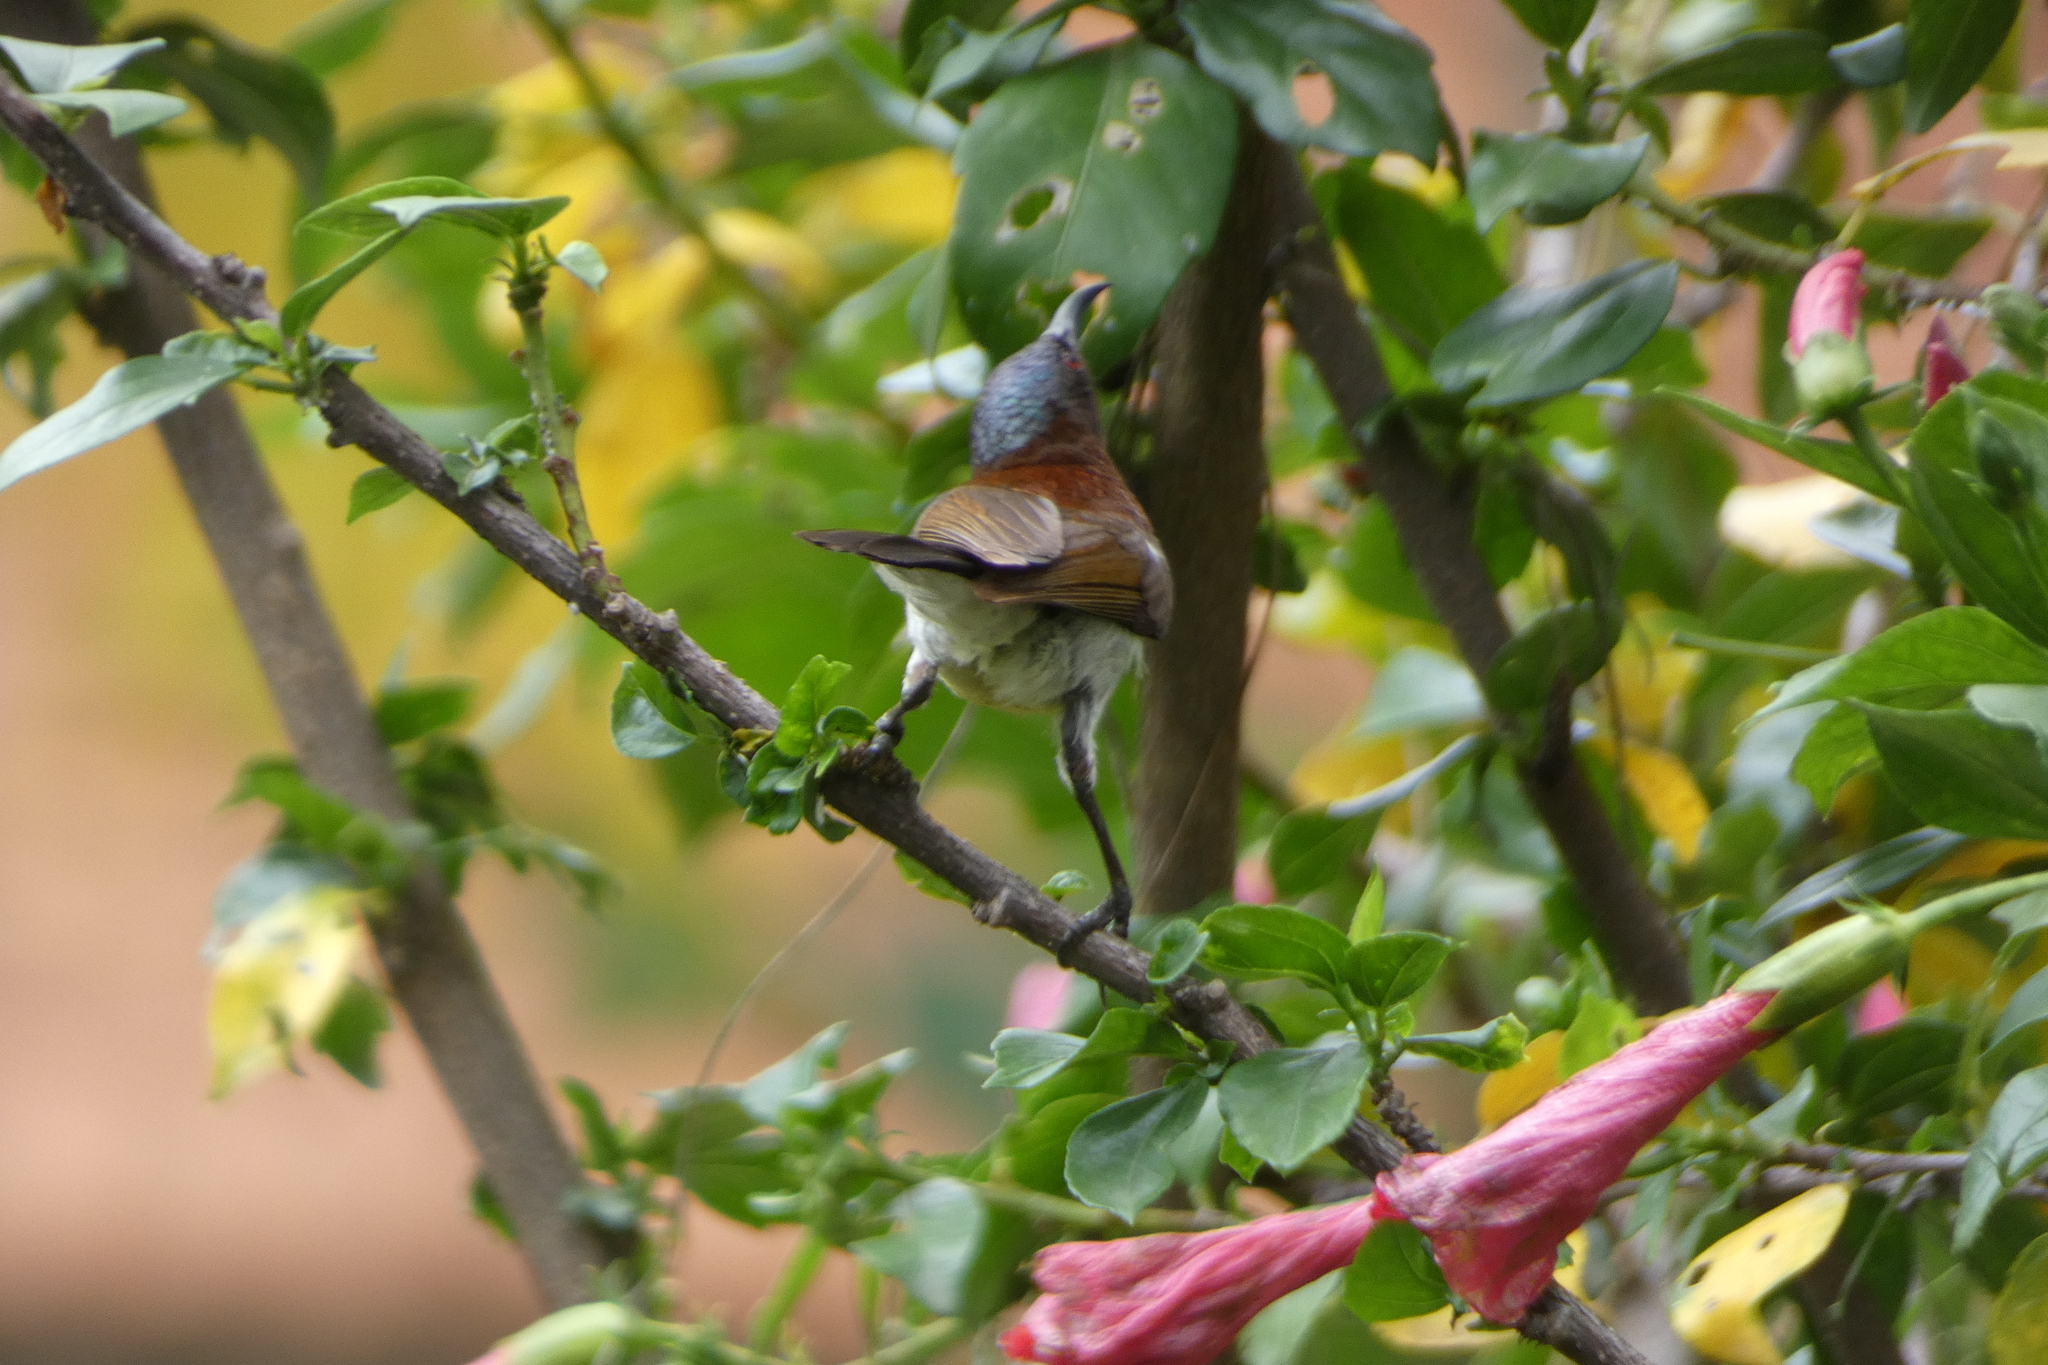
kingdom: Animalia
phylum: Chordata
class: Aves
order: Passeriformes
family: Nectariniidae
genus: Leptocoma
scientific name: Leptocoma zeylonica
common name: Purple-rumped sunbird
